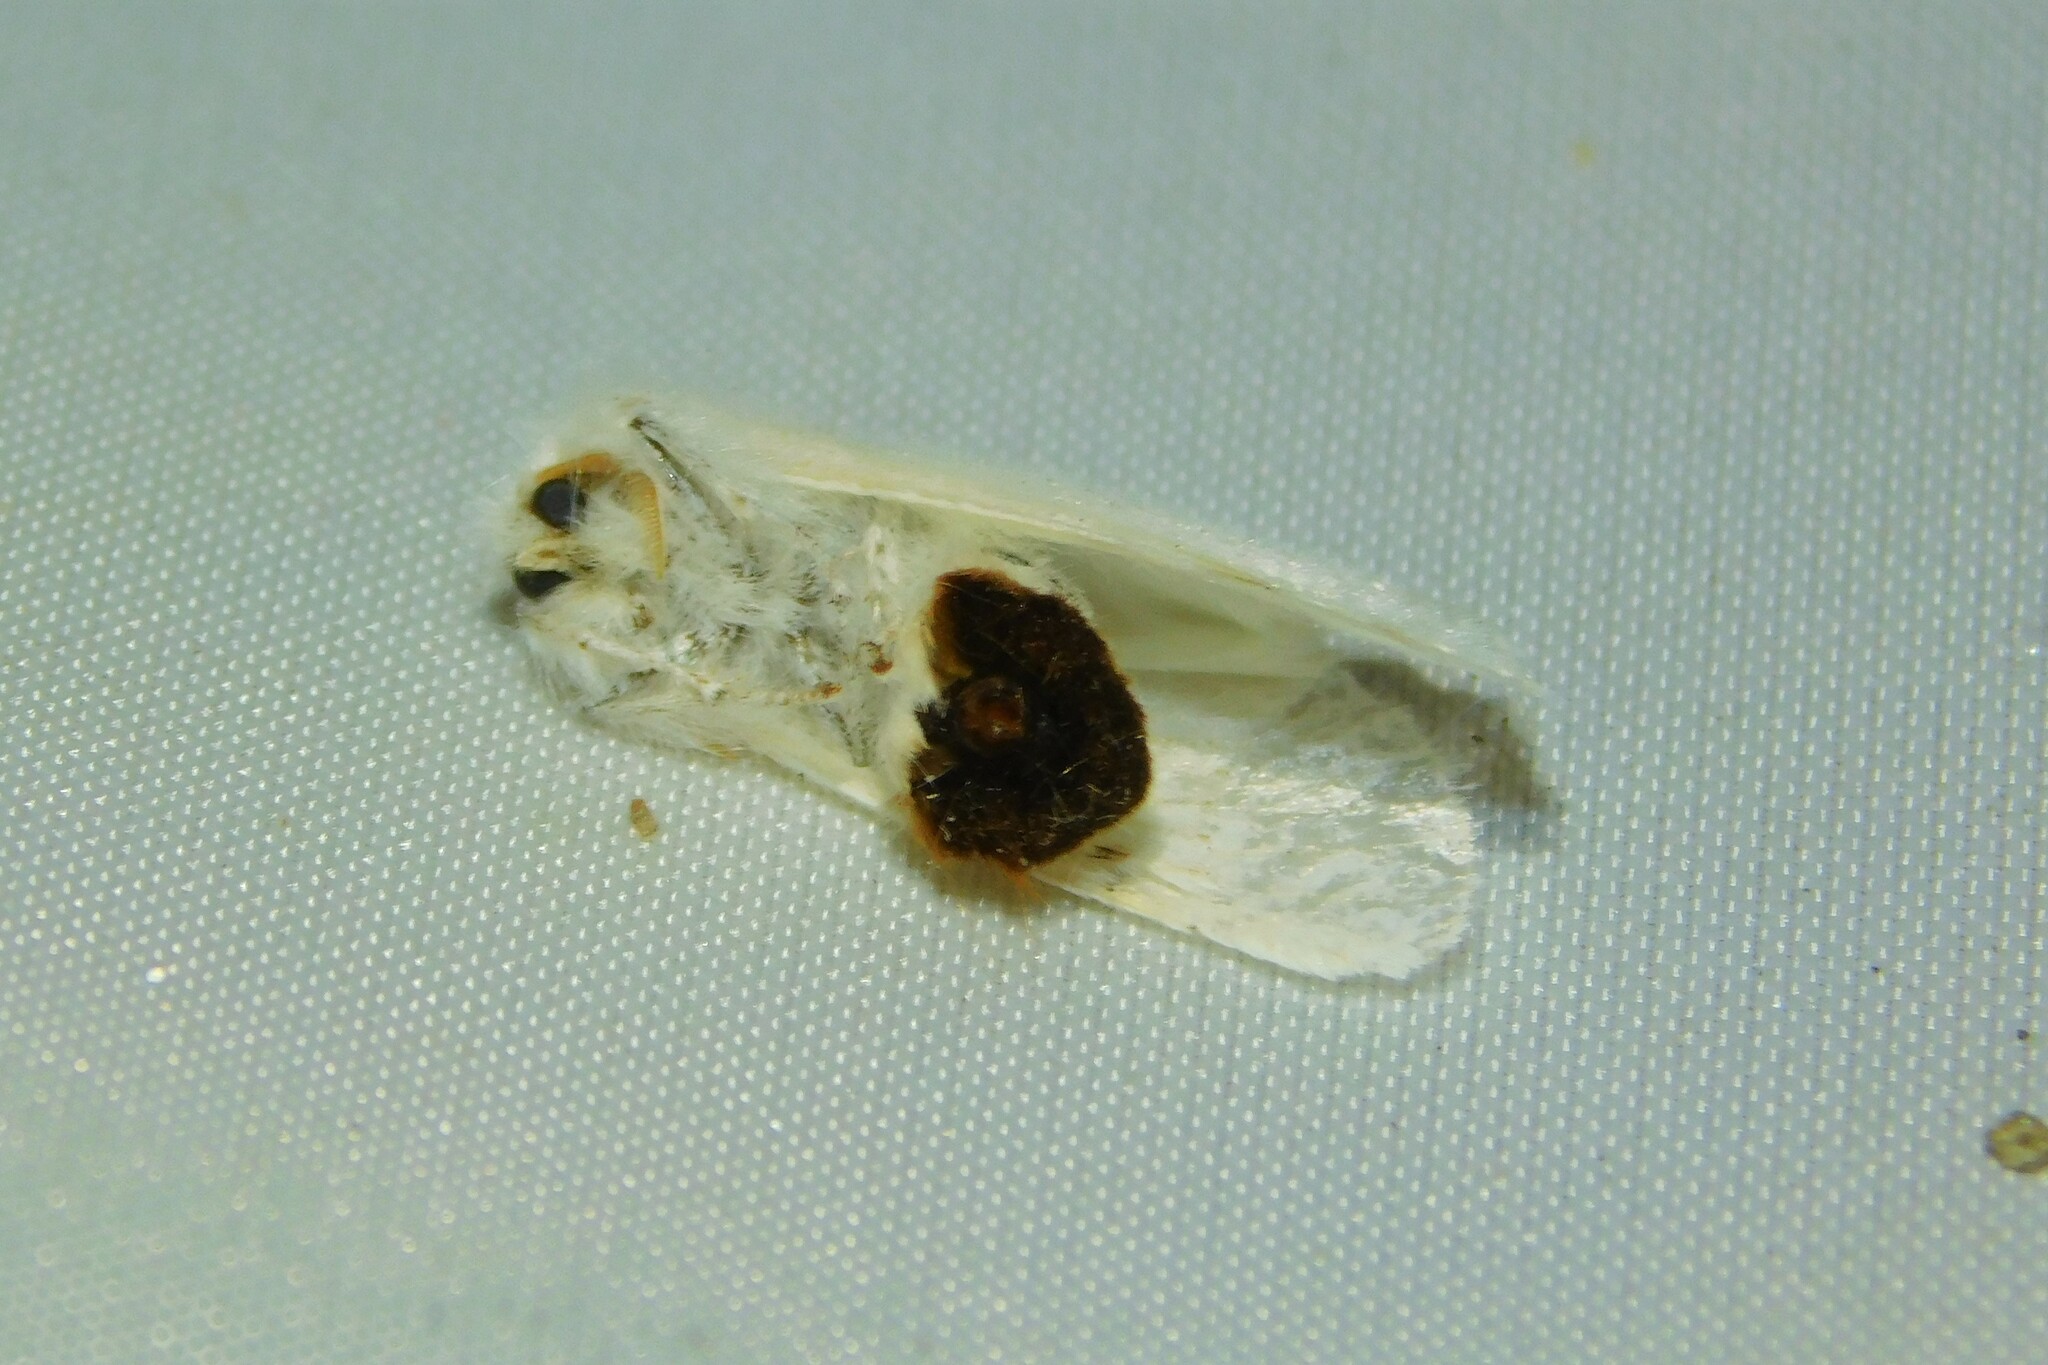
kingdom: Animalia
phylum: Arthropoda
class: Insecta
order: Lepidoptera
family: Erebidae
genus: Euproctis
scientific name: Euproctis chrysorrhoea
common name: Brown-tail
